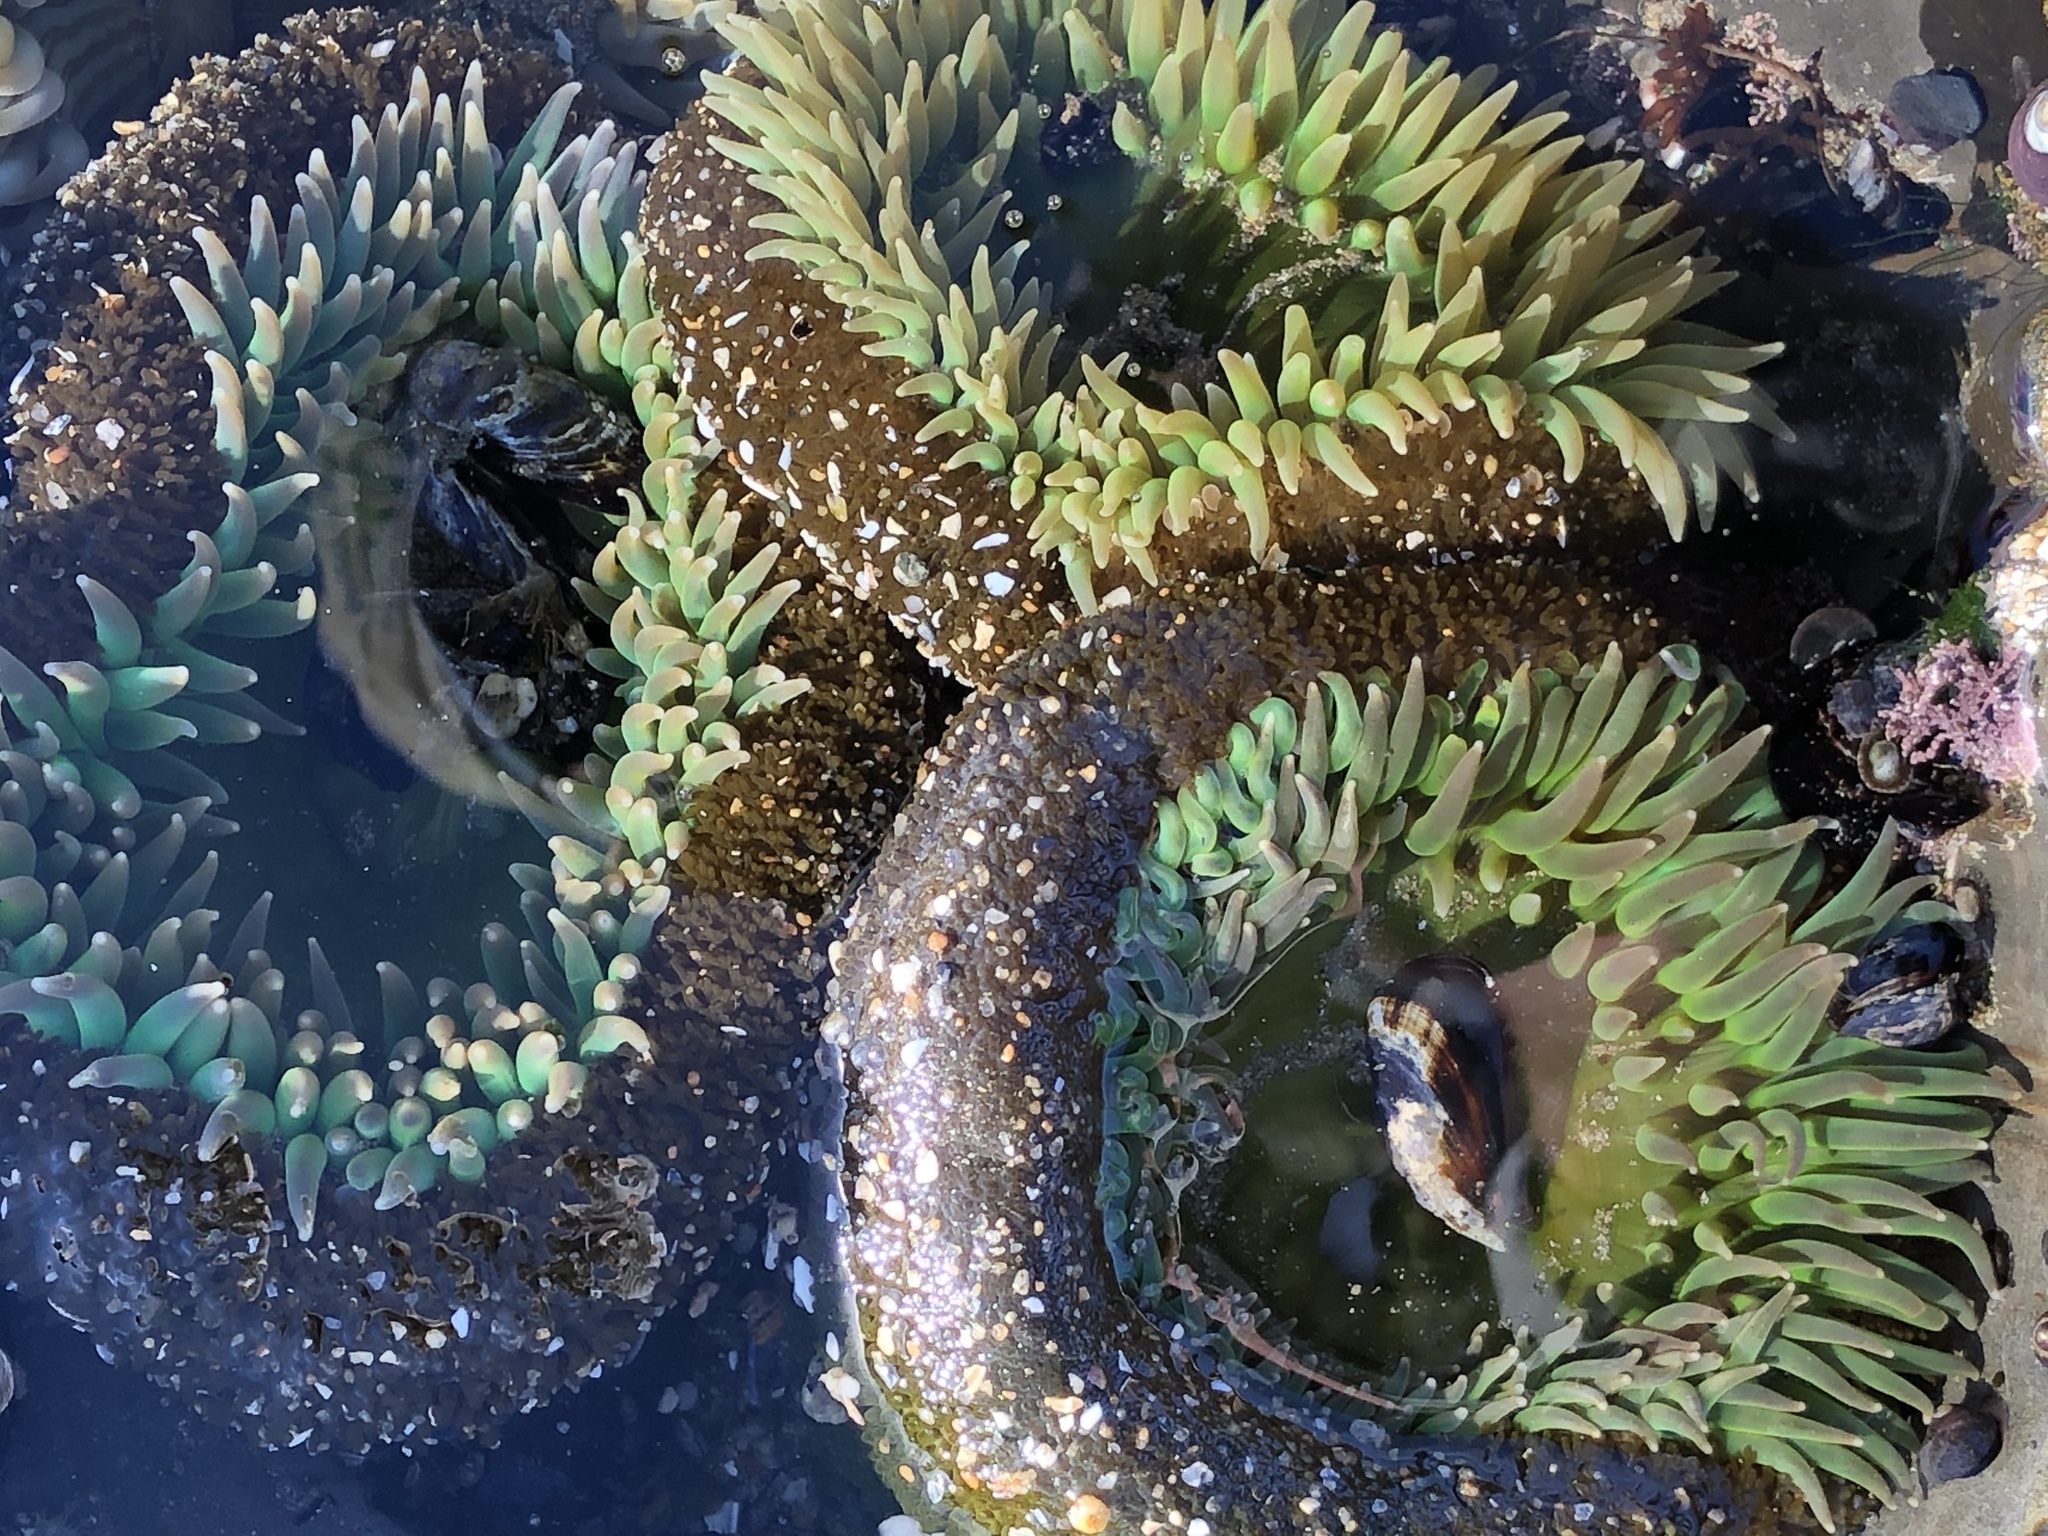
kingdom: Animalia
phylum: Cnidaria
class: Anthozoa
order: Actiniaria
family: Actiniidae
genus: Anthopleura
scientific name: Anthopleura xanthogrammica
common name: Giant green anemone
